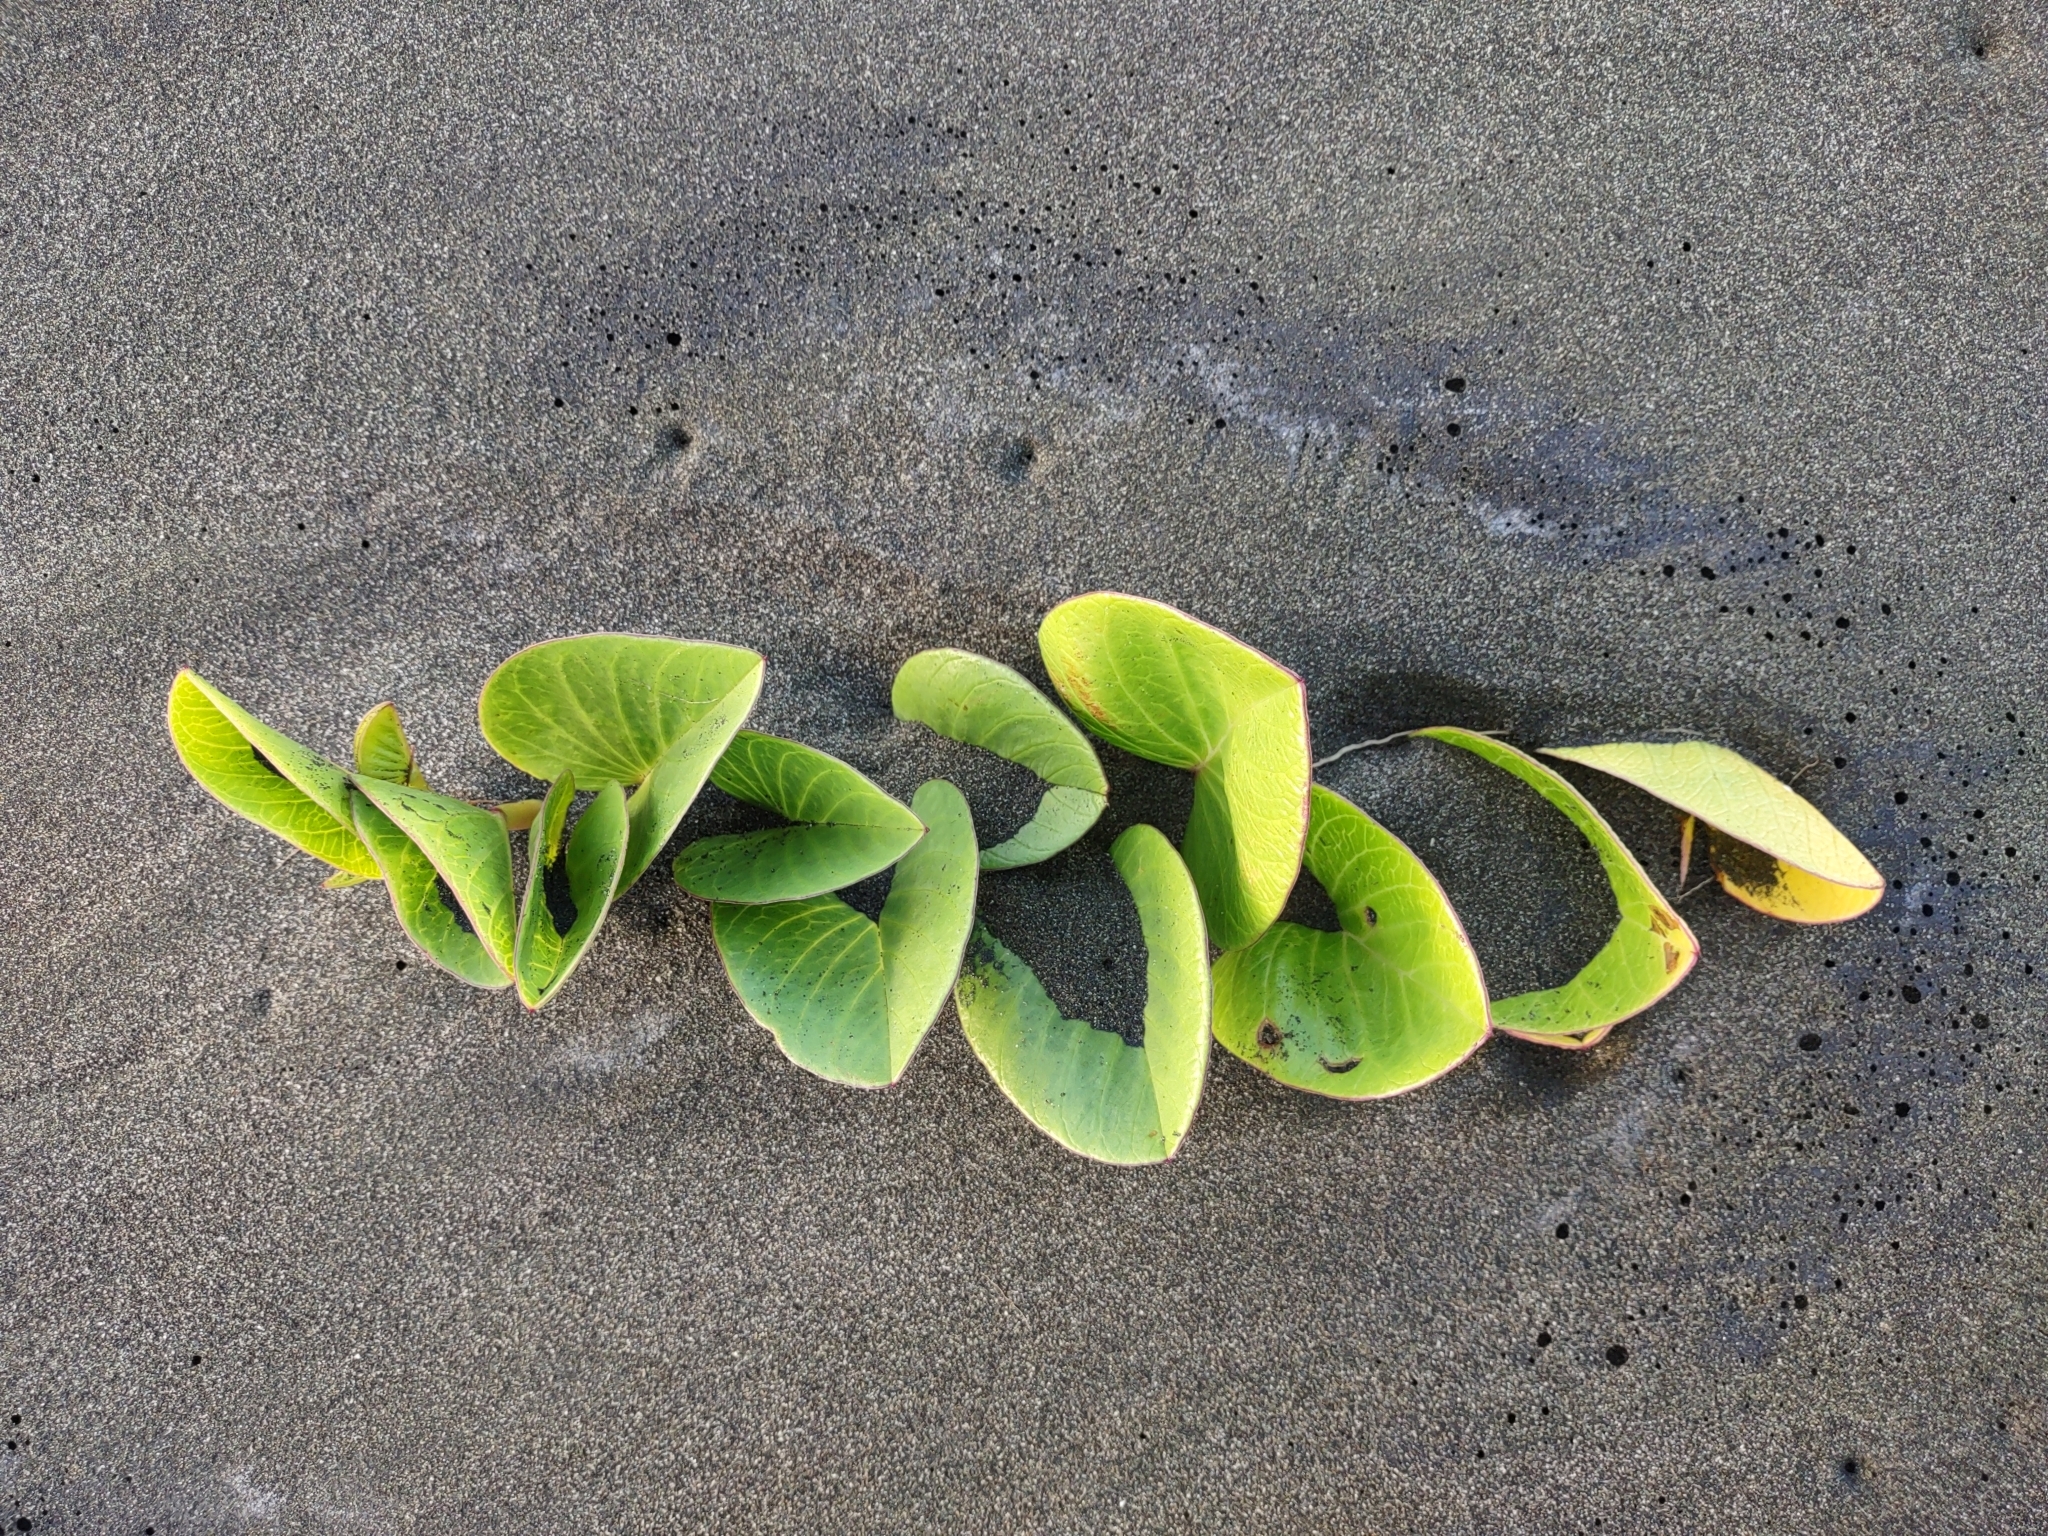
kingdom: Plantae
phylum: Tracheophyta
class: Magnoliopsida
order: Solanales
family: Convolvulaceae
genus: Ipomoea
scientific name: Ipomoea pes-caprae
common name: Beach morning glory
